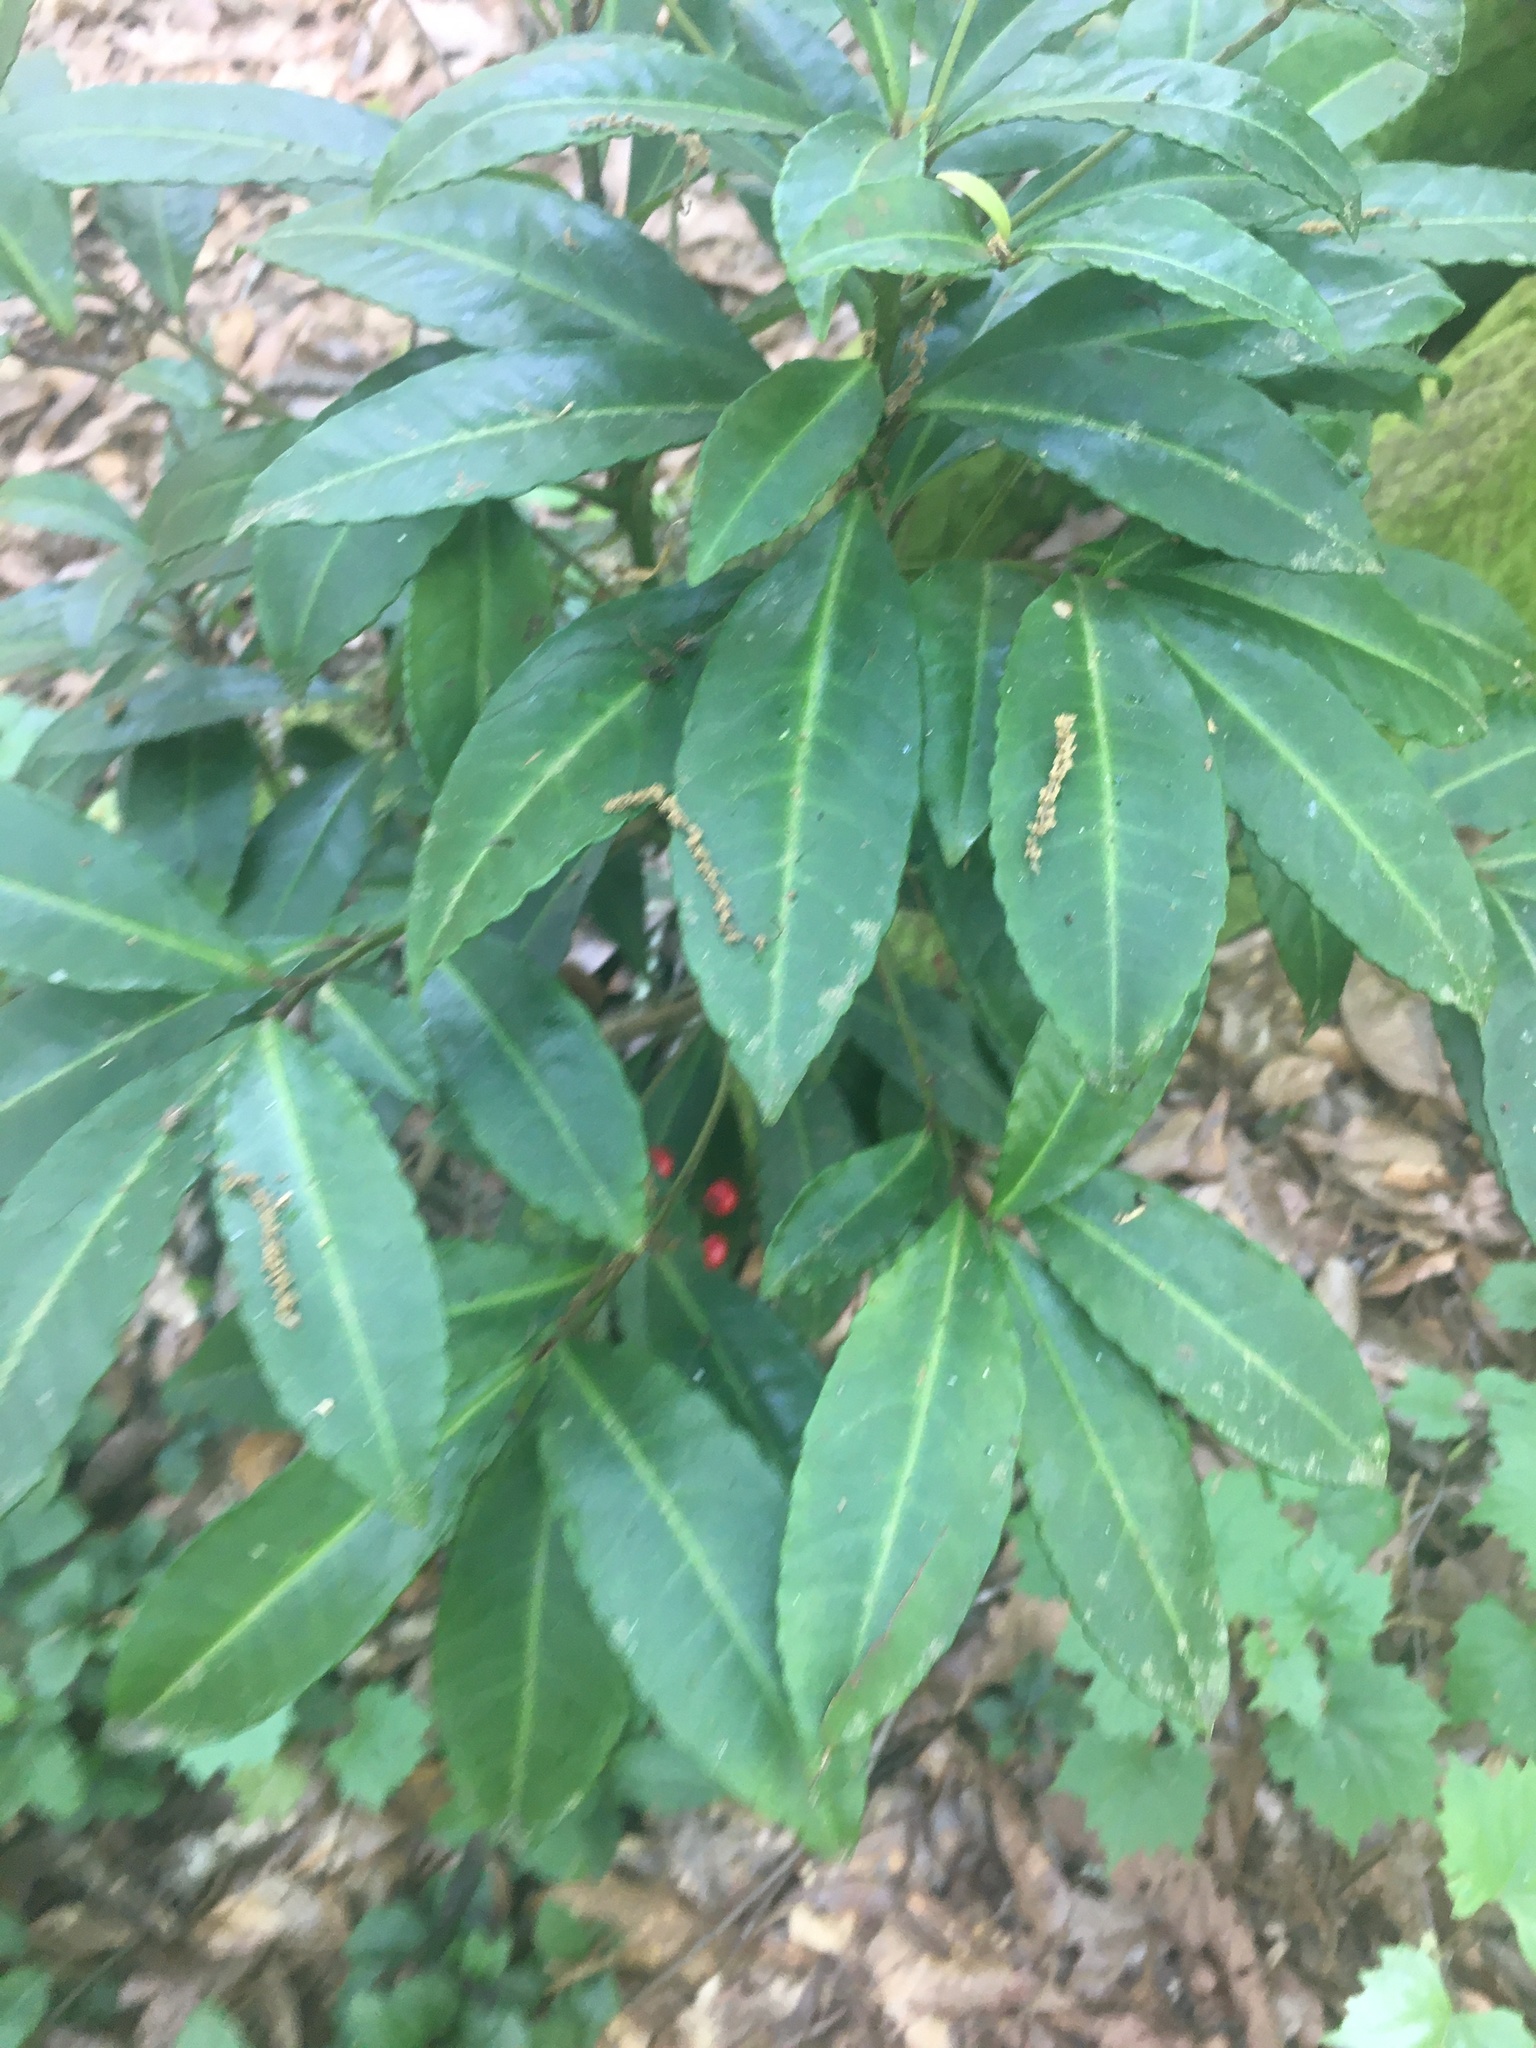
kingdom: Plantae
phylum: Tracheophyta
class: Magnoliopsida
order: Ericales
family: Primulaceae
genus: Ardisia
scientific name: Ardisia crenata
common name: Hen's eyes
